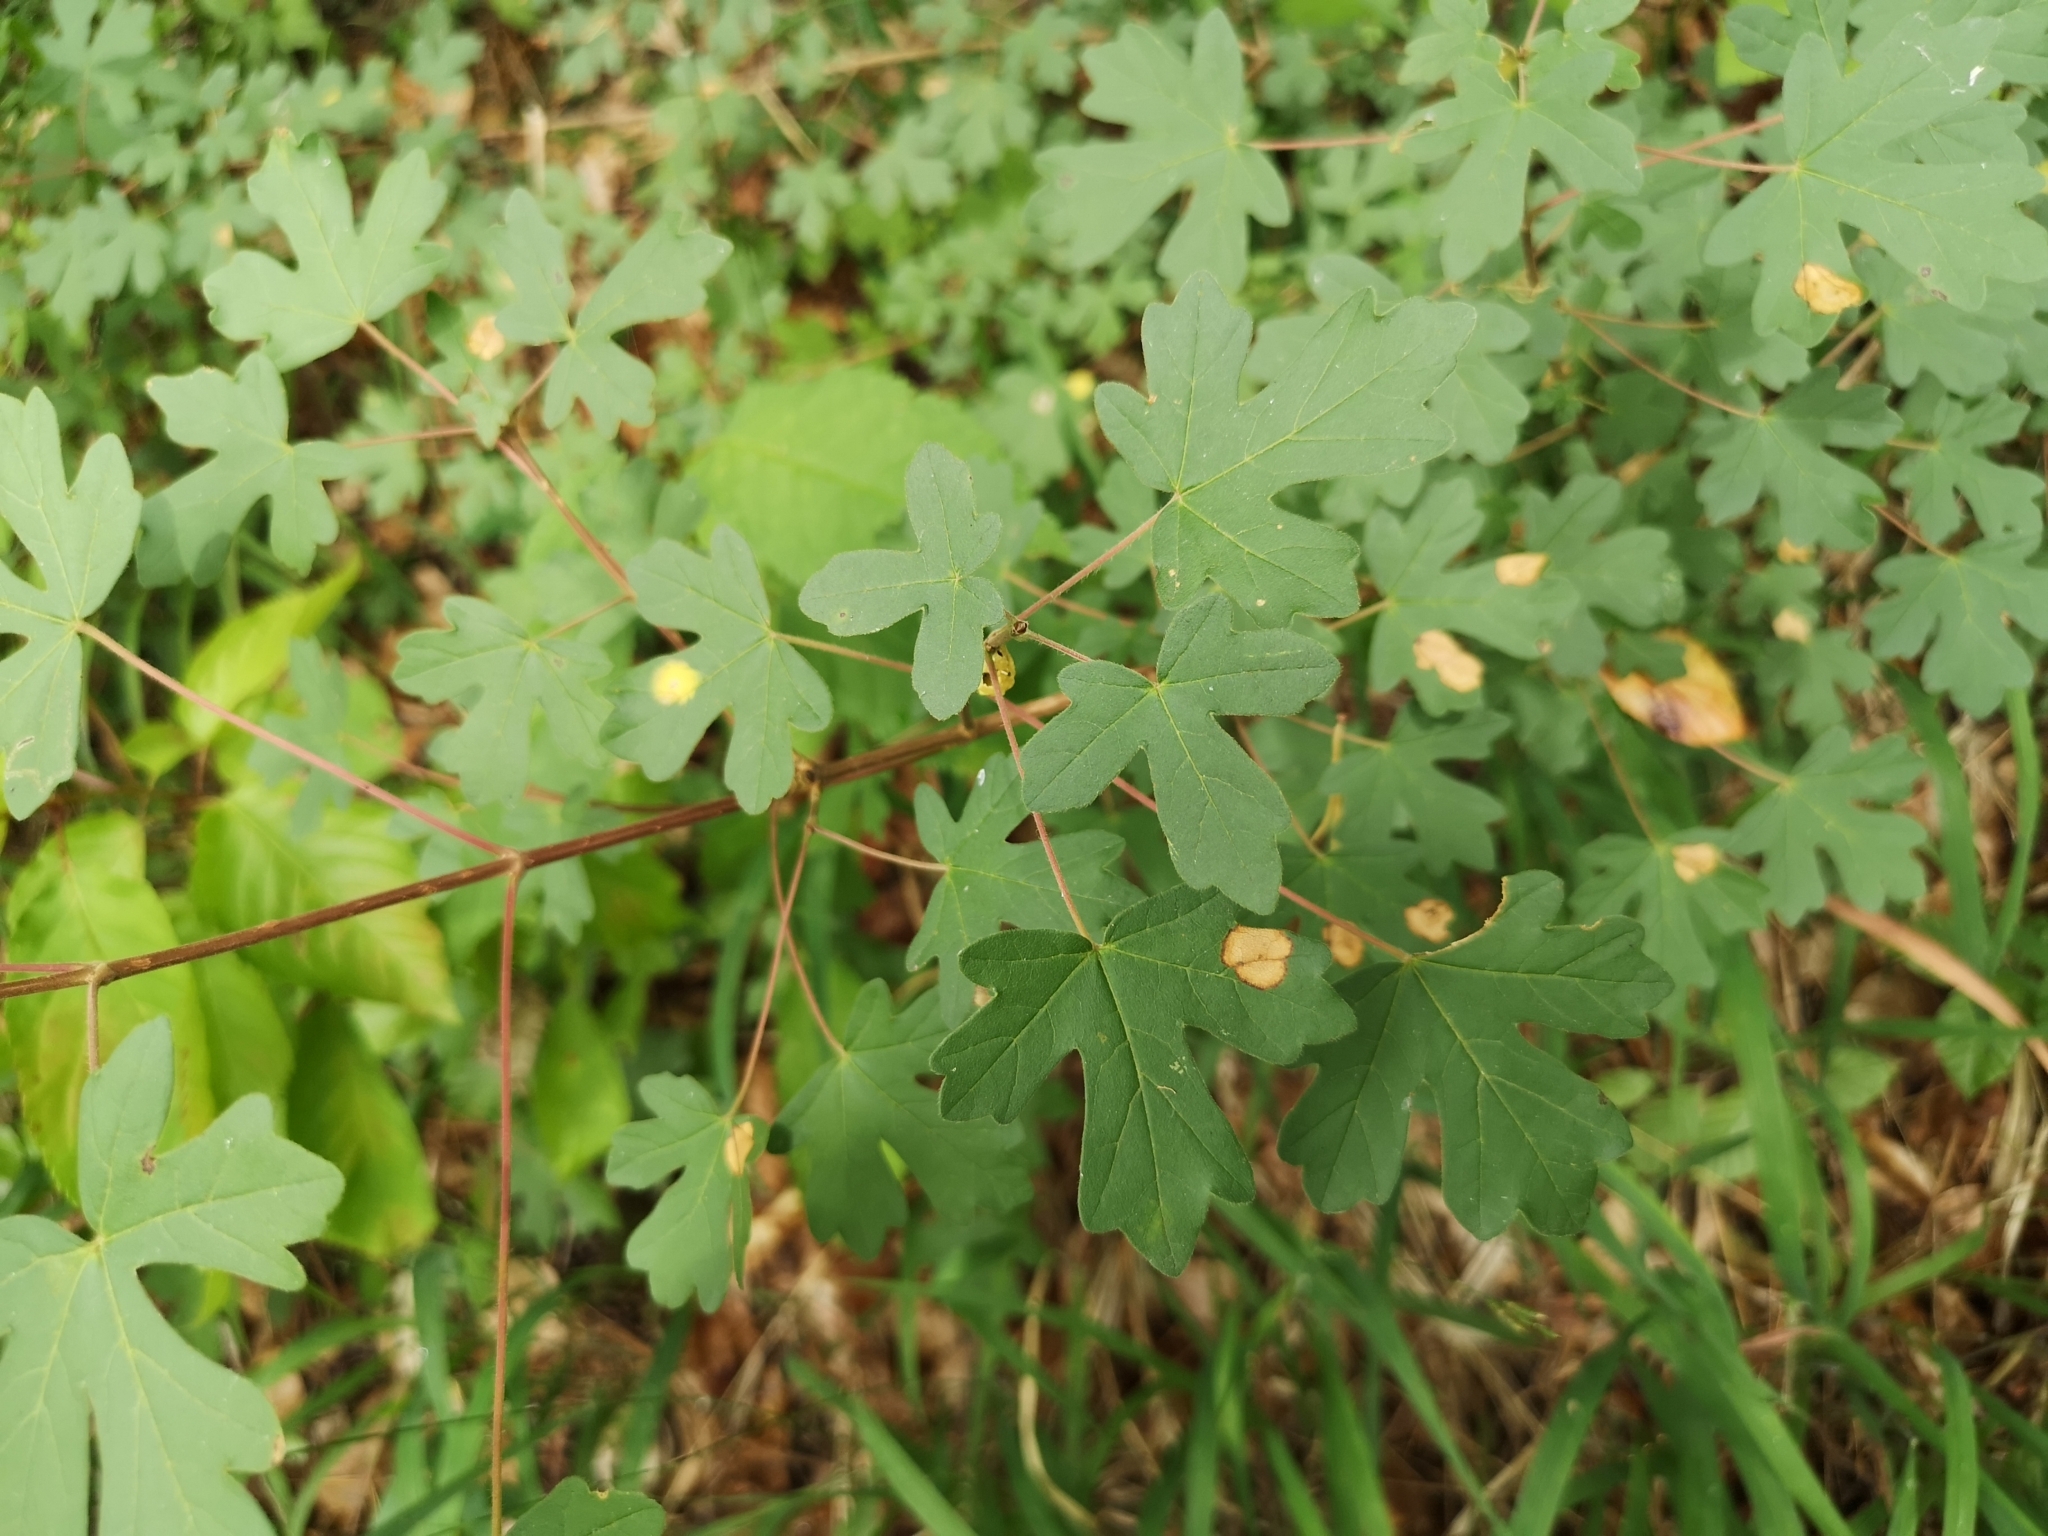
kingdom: Plantae
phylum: Tracheophyta
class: Magnoliopsida
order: Sapindales
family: Sapindaceae
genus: Acer
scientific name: Acer campestre
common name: Field maple
